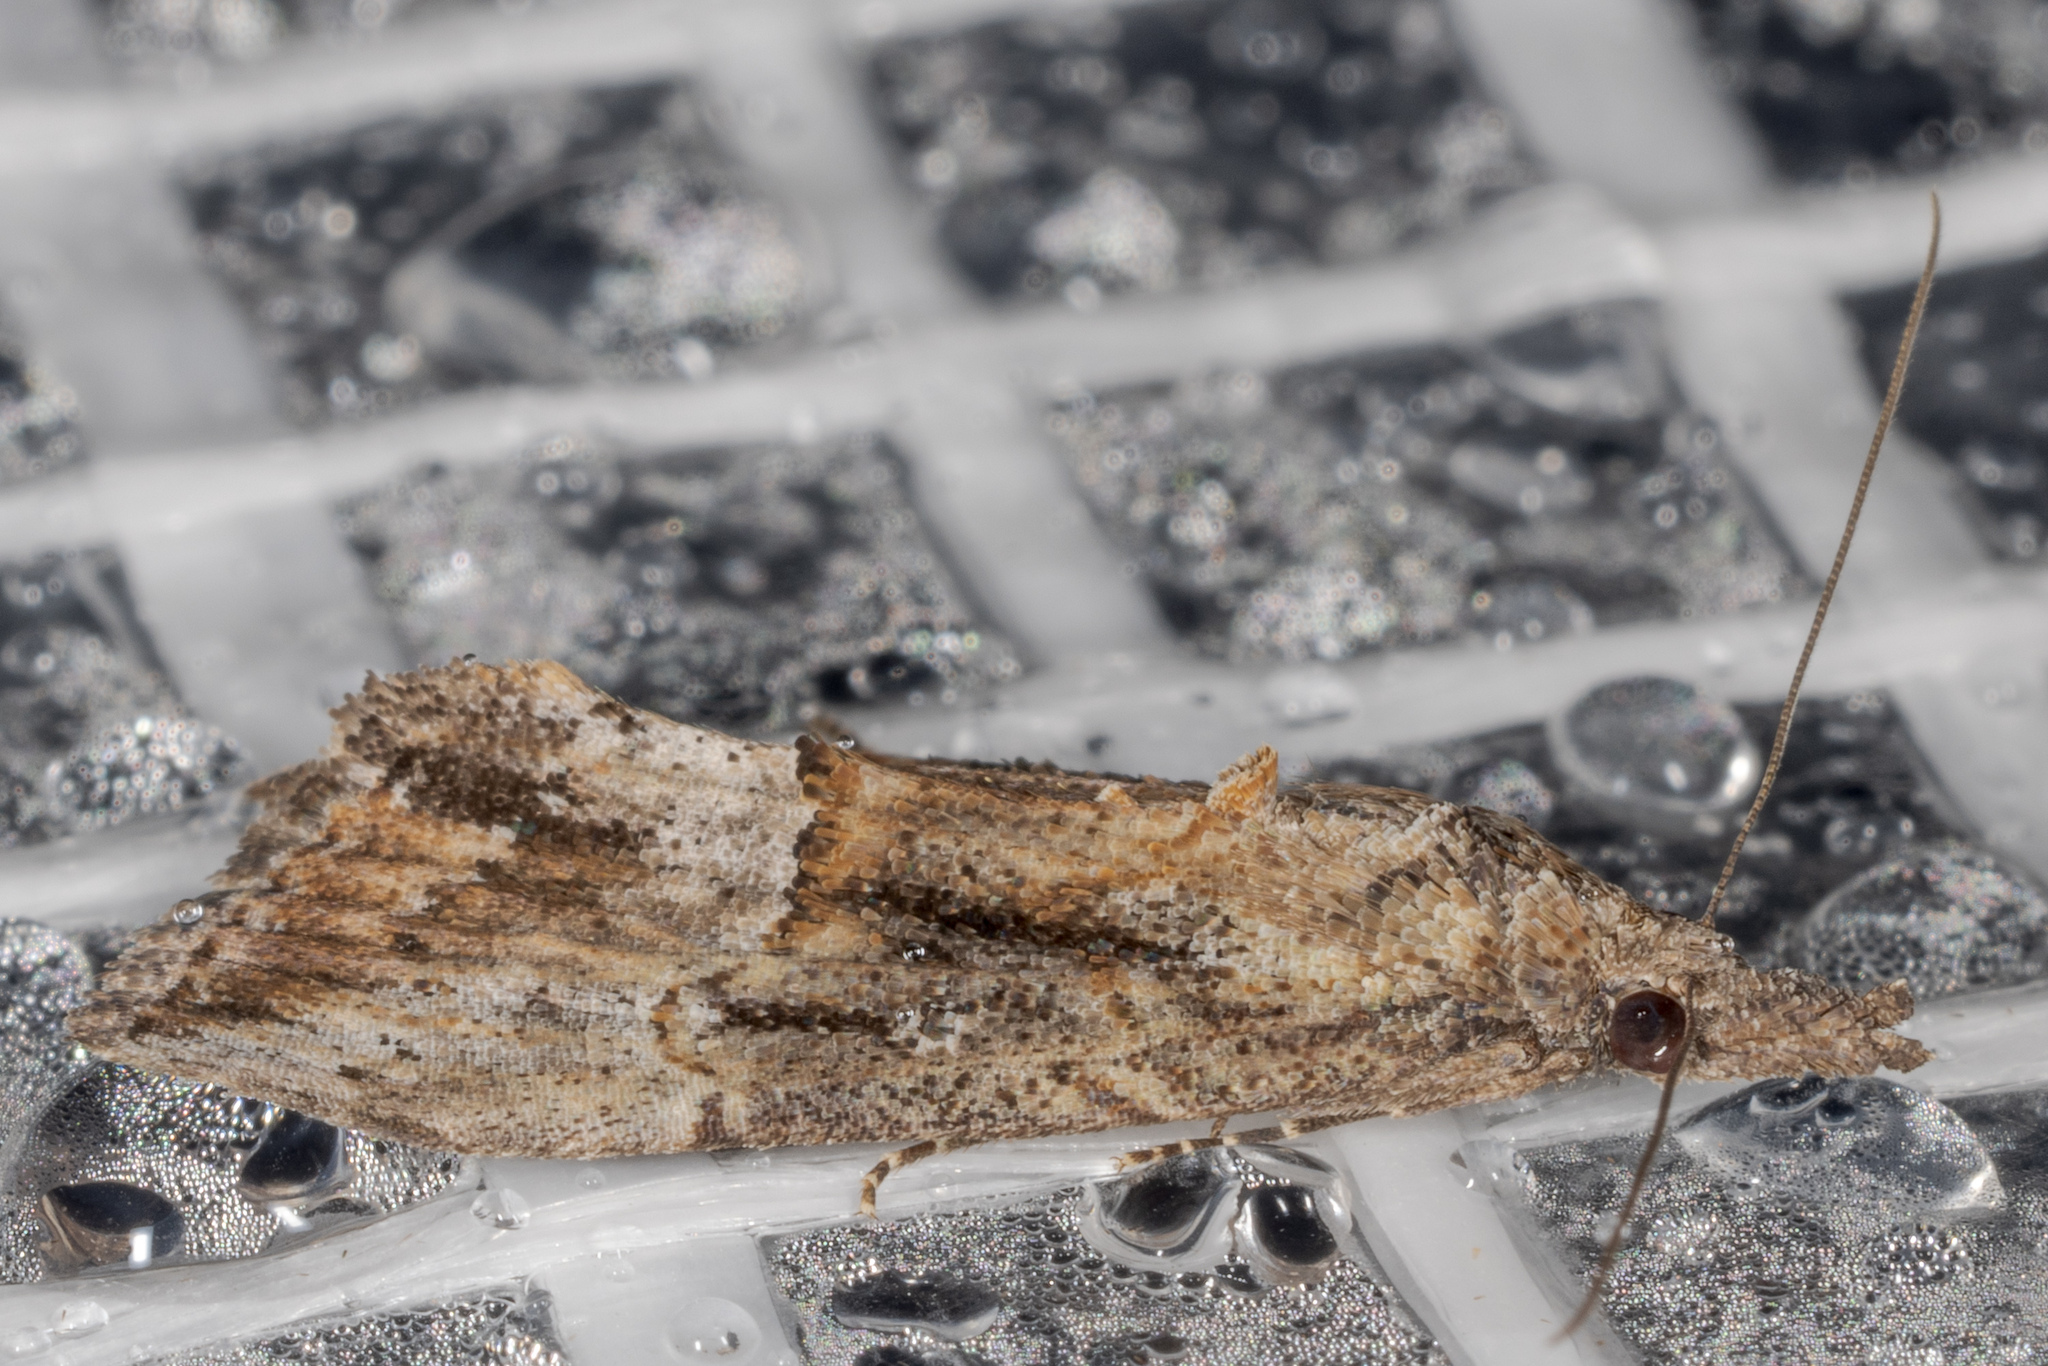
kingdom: Animalia
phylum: Arthropoda
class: Insecta
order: Lepidoptera
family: Erebidae
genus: Hypena
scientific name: Hypena scabra
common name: Green cloverworm
